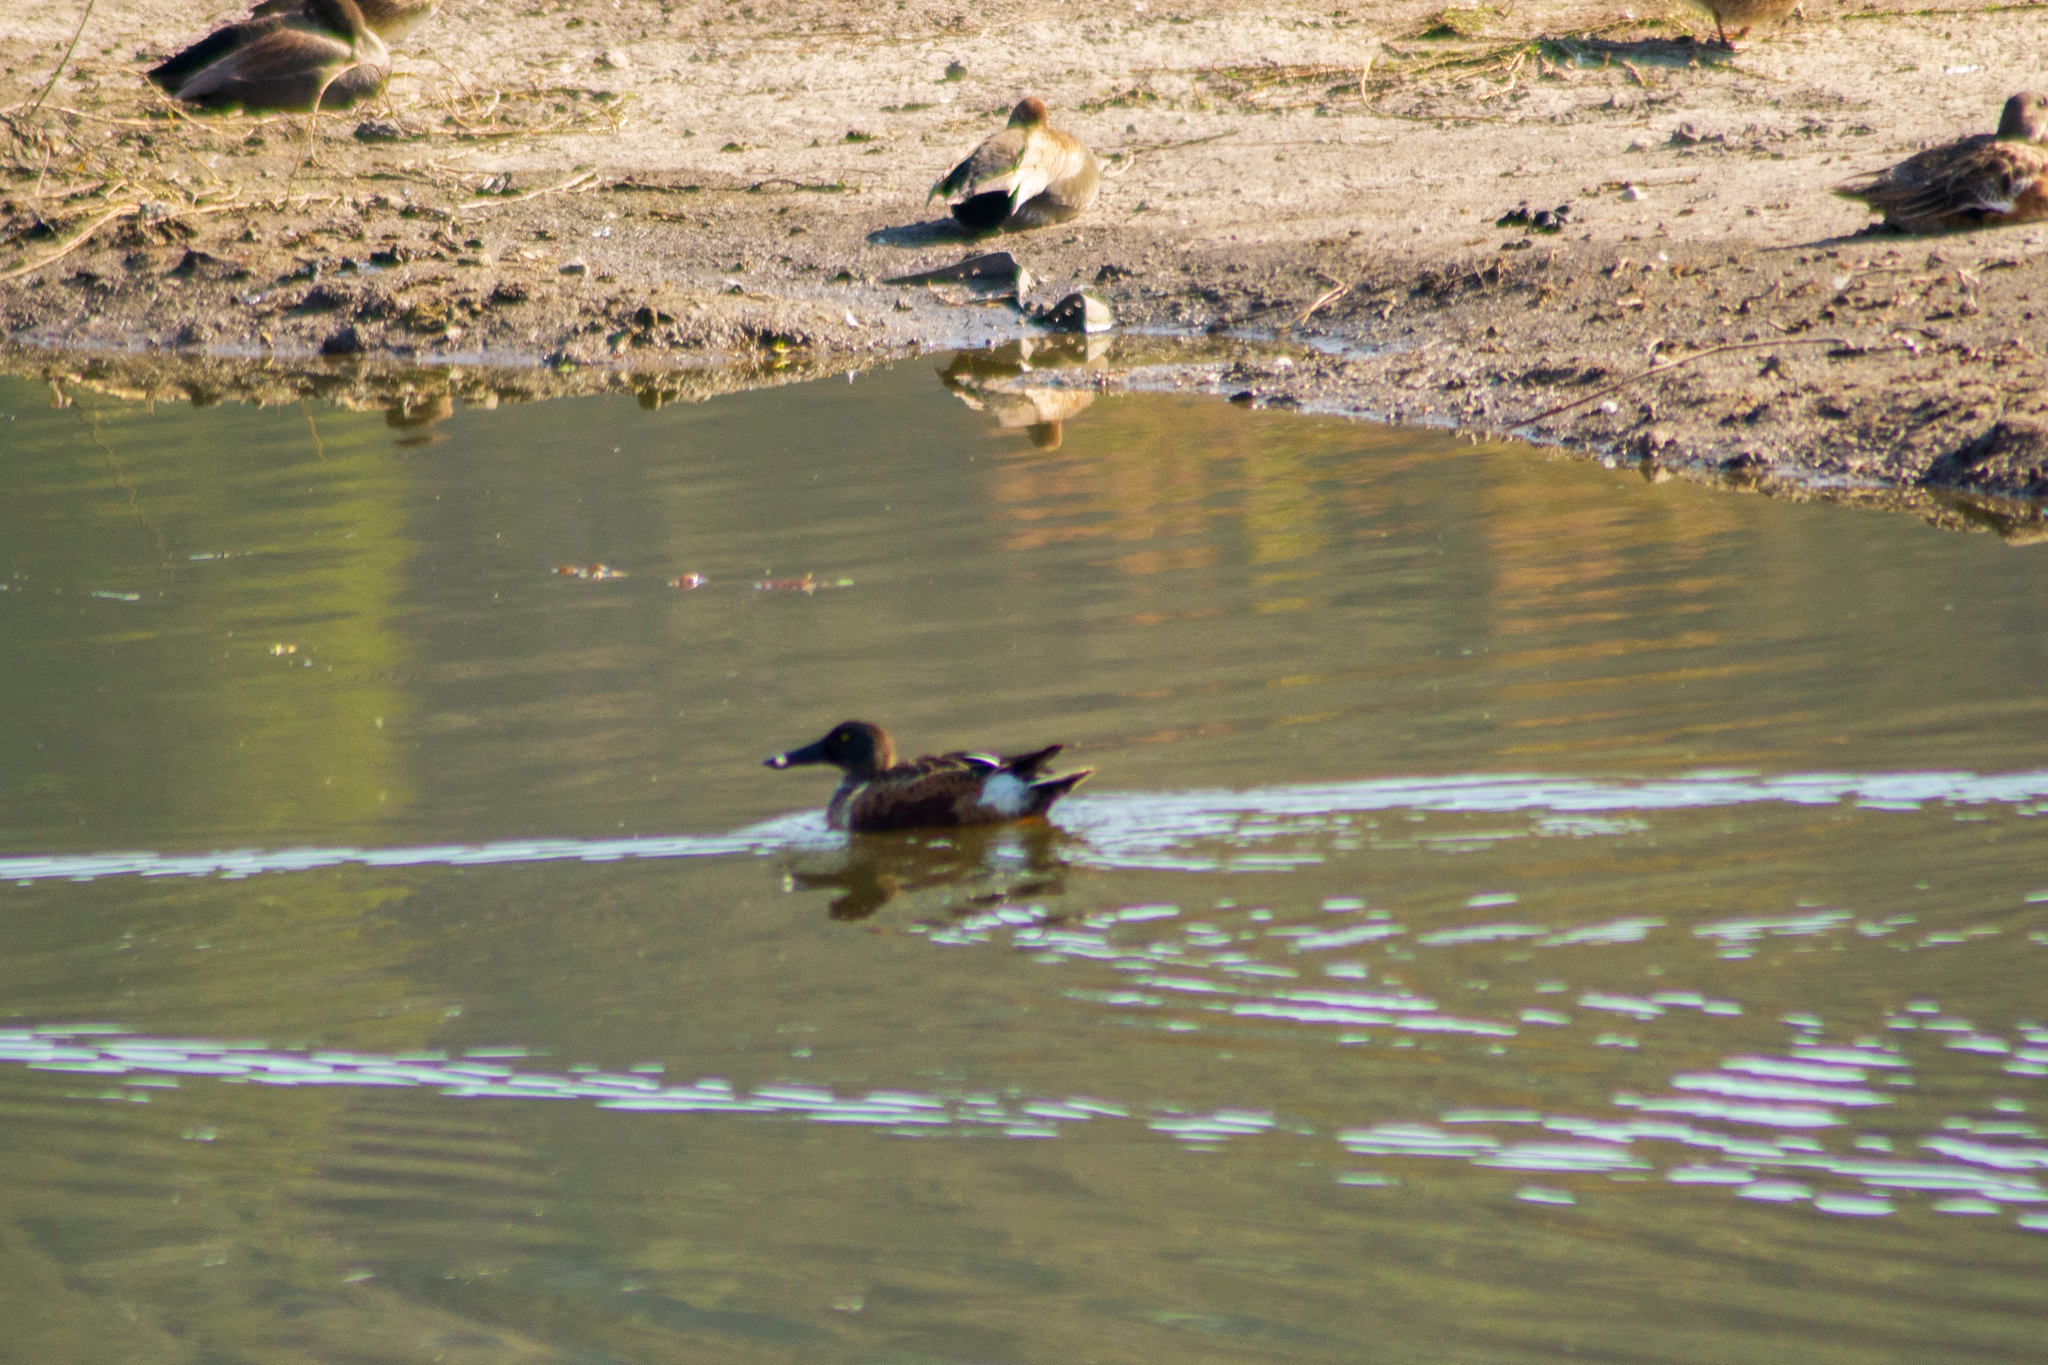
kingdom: Animalia
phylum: Chordata
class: Aves
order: Anseriformes
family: Anatidae
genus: Spatula
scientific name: Spatula discors
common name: Blue-winged teal
